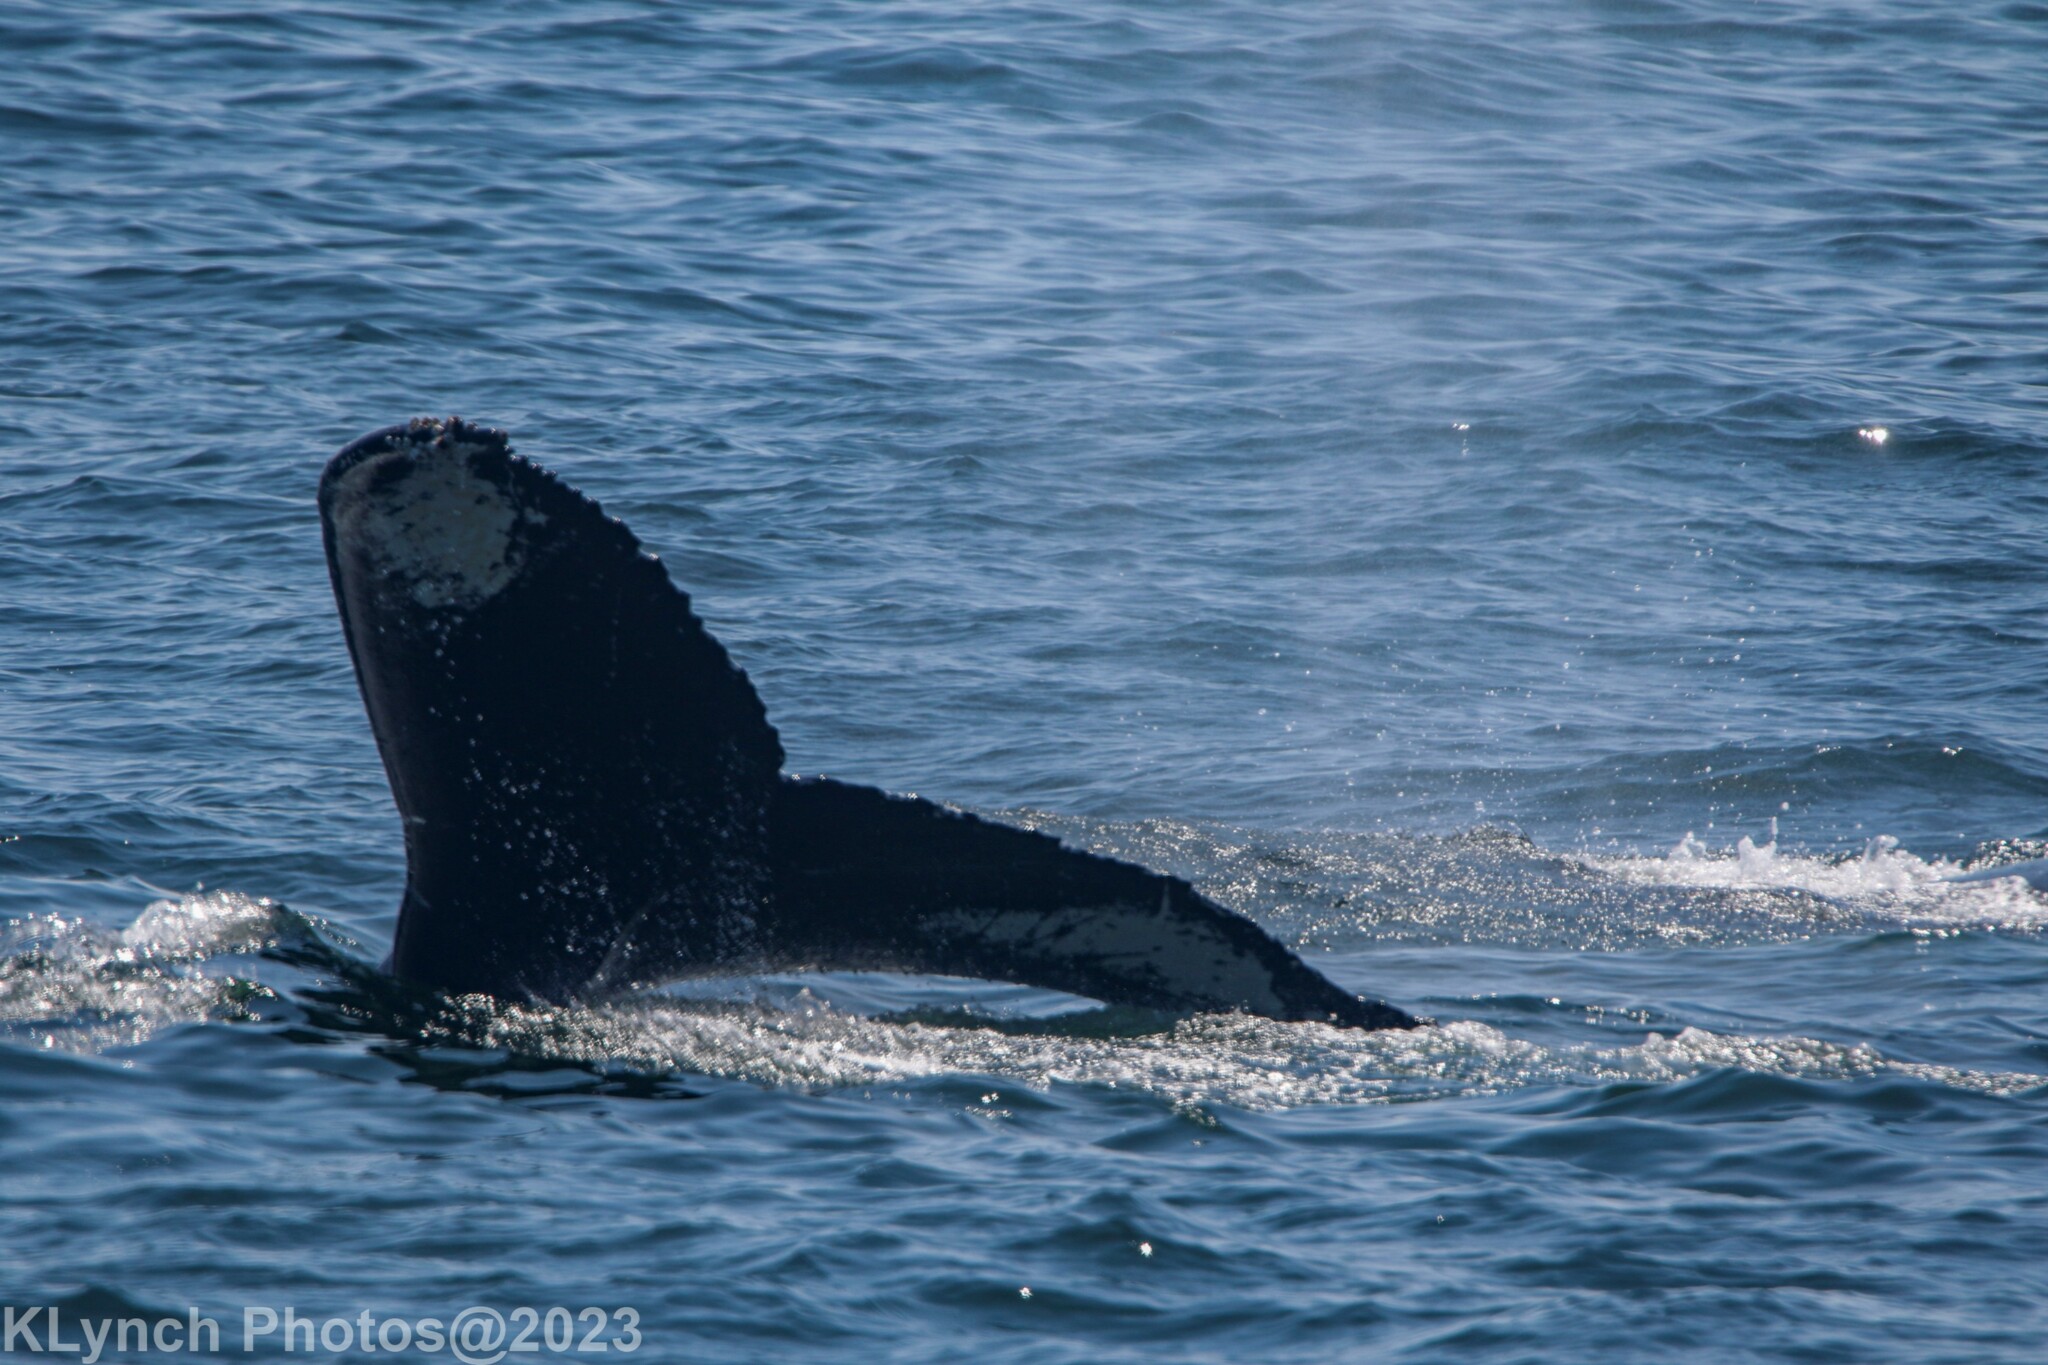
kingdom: Animalia
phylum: Chordata
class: Mammalia
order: Cetacea
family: Balaenopteridae
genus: Megaptera
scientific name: Megaptera novaeangliae
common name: Humpback whale
